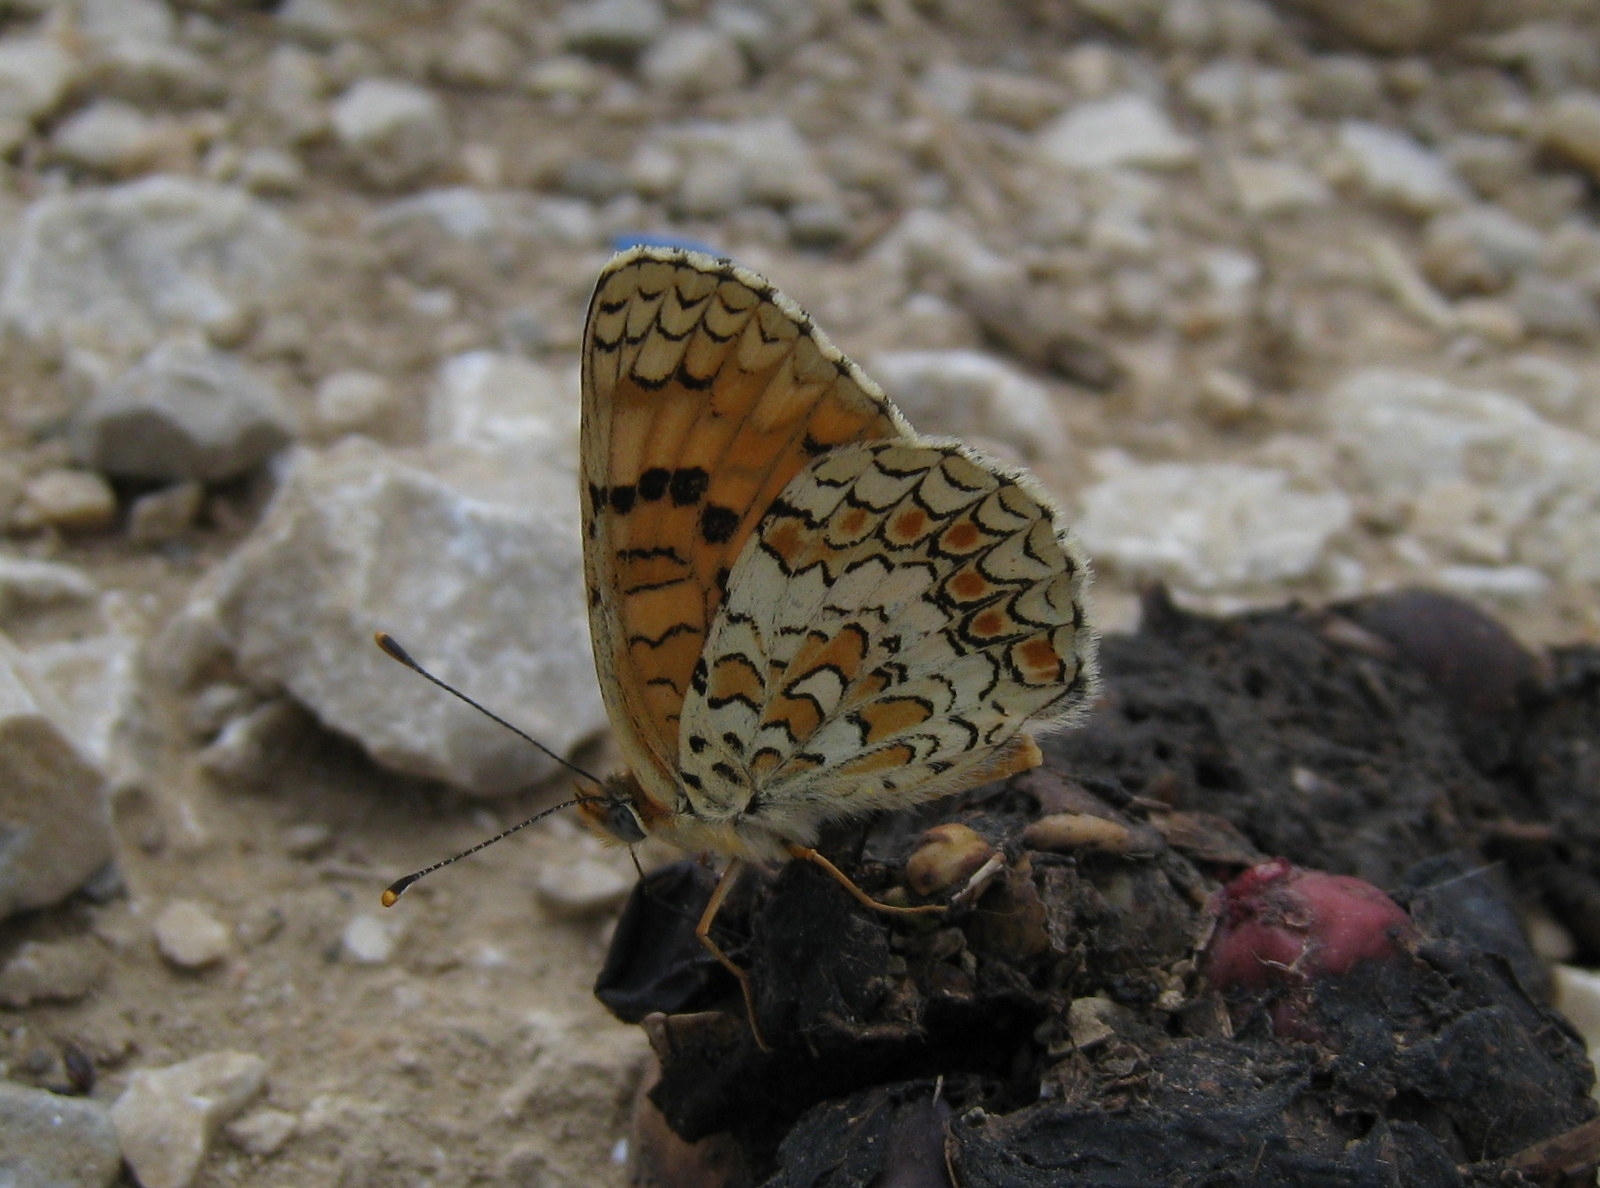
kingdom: Animalia
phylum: Arthropoda
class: Insecta
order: Lepidoptera
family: Nymphalidae
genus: Melitaea
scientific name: Melitaea phoebe
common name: Knapweed fritillary
